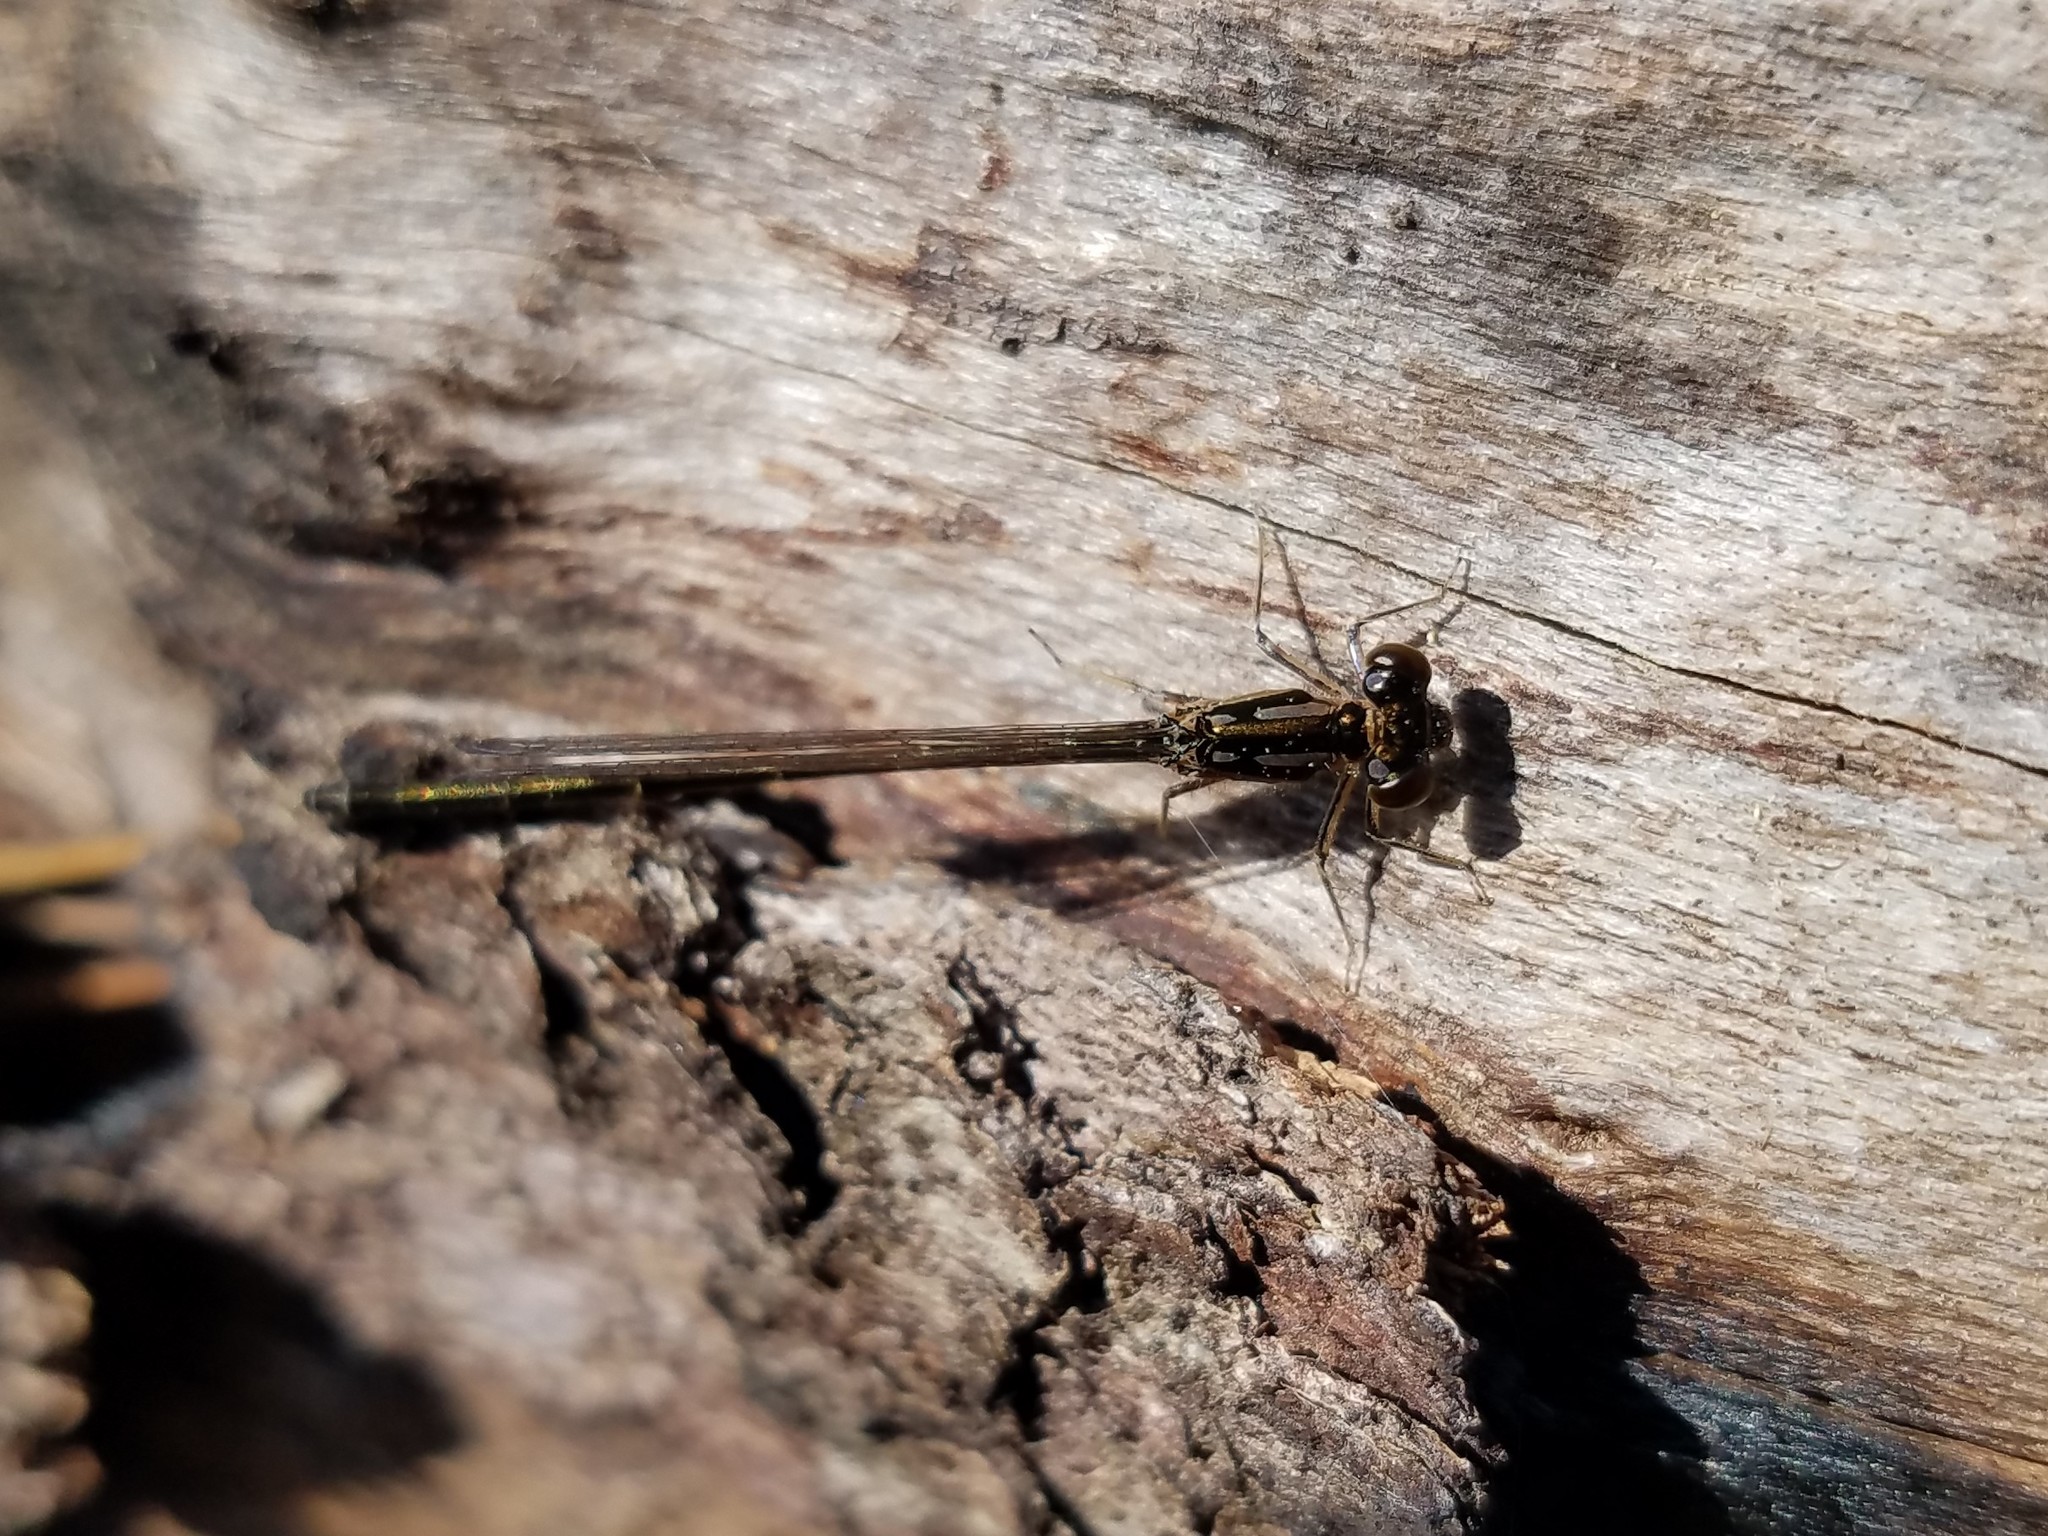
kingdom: Animalia
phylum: Arthropoda
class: Insecta
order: Odonata
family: Coenagrionidae
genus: Ischnura
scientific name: Ischnura posita
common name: Fragile forktail
